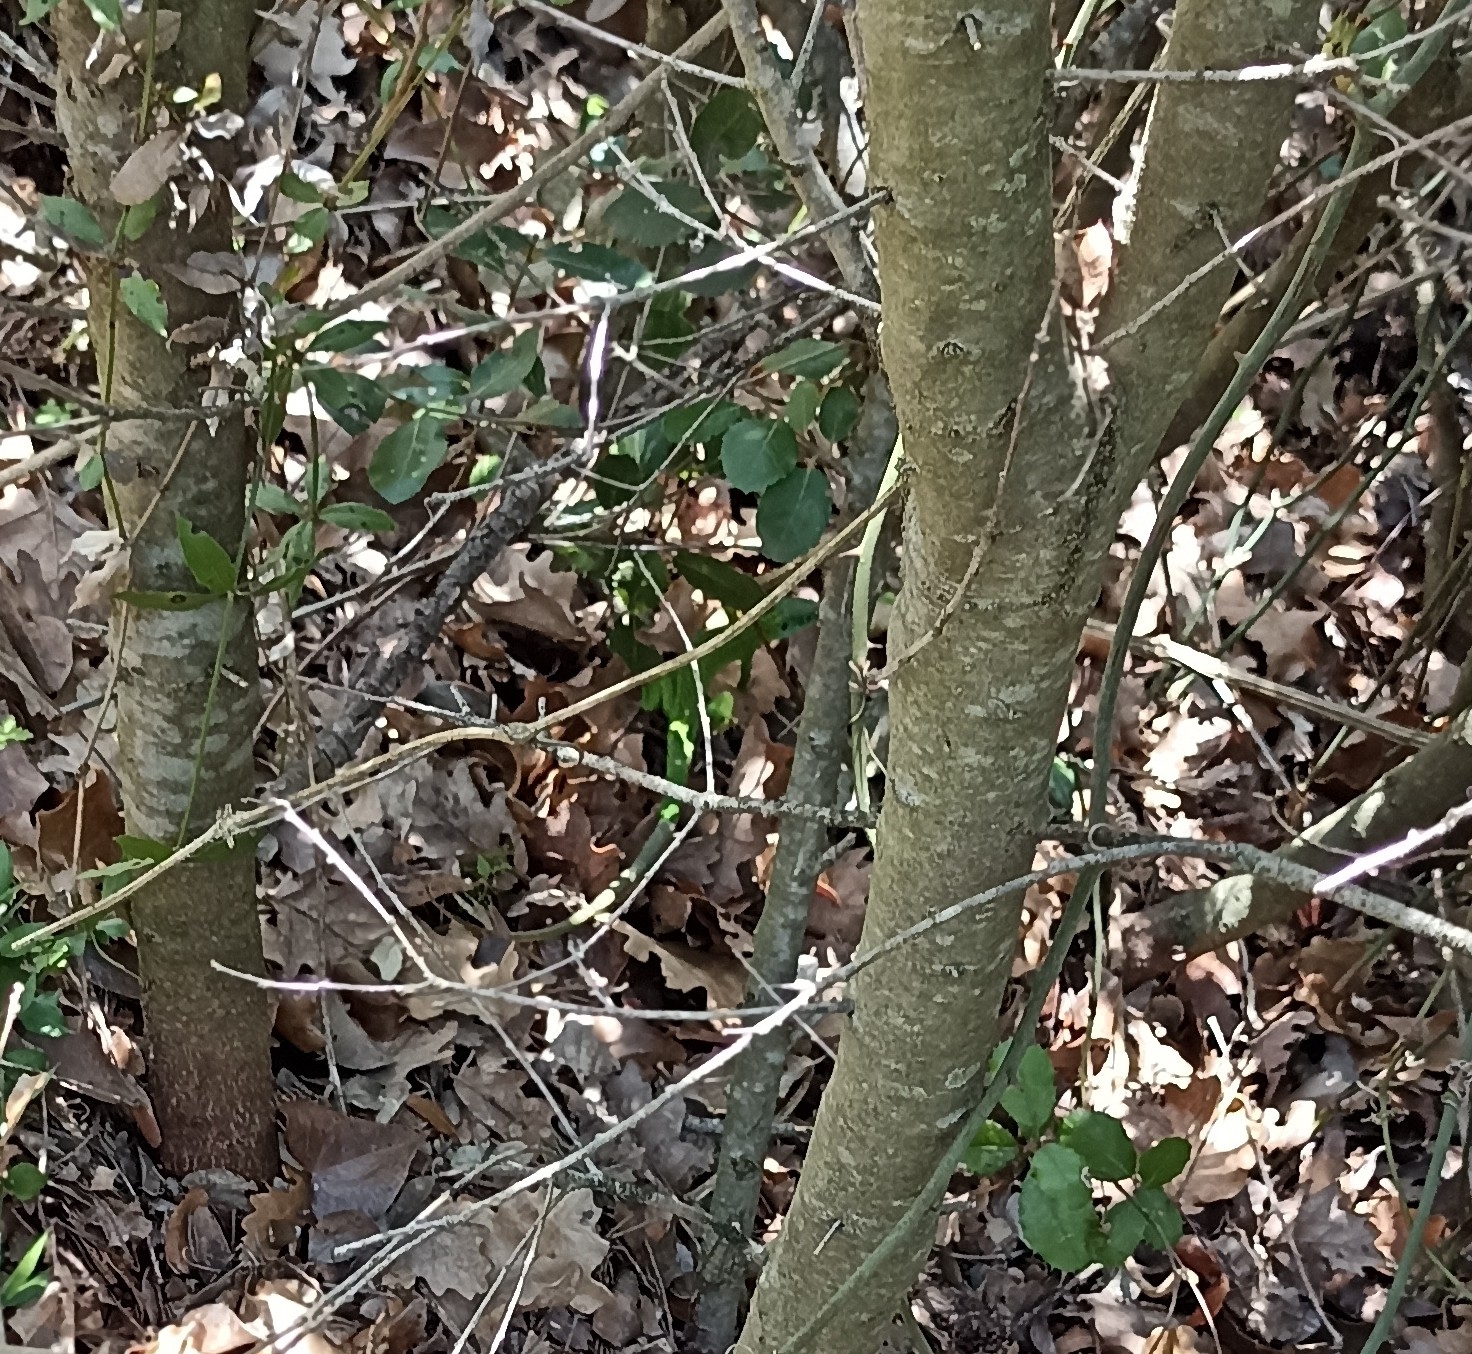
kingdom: Animalia
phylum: Chordata
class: Squamata
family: Lacertidae
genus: Lacerta
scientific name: Lacerta bilineata
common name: Western green lizard
